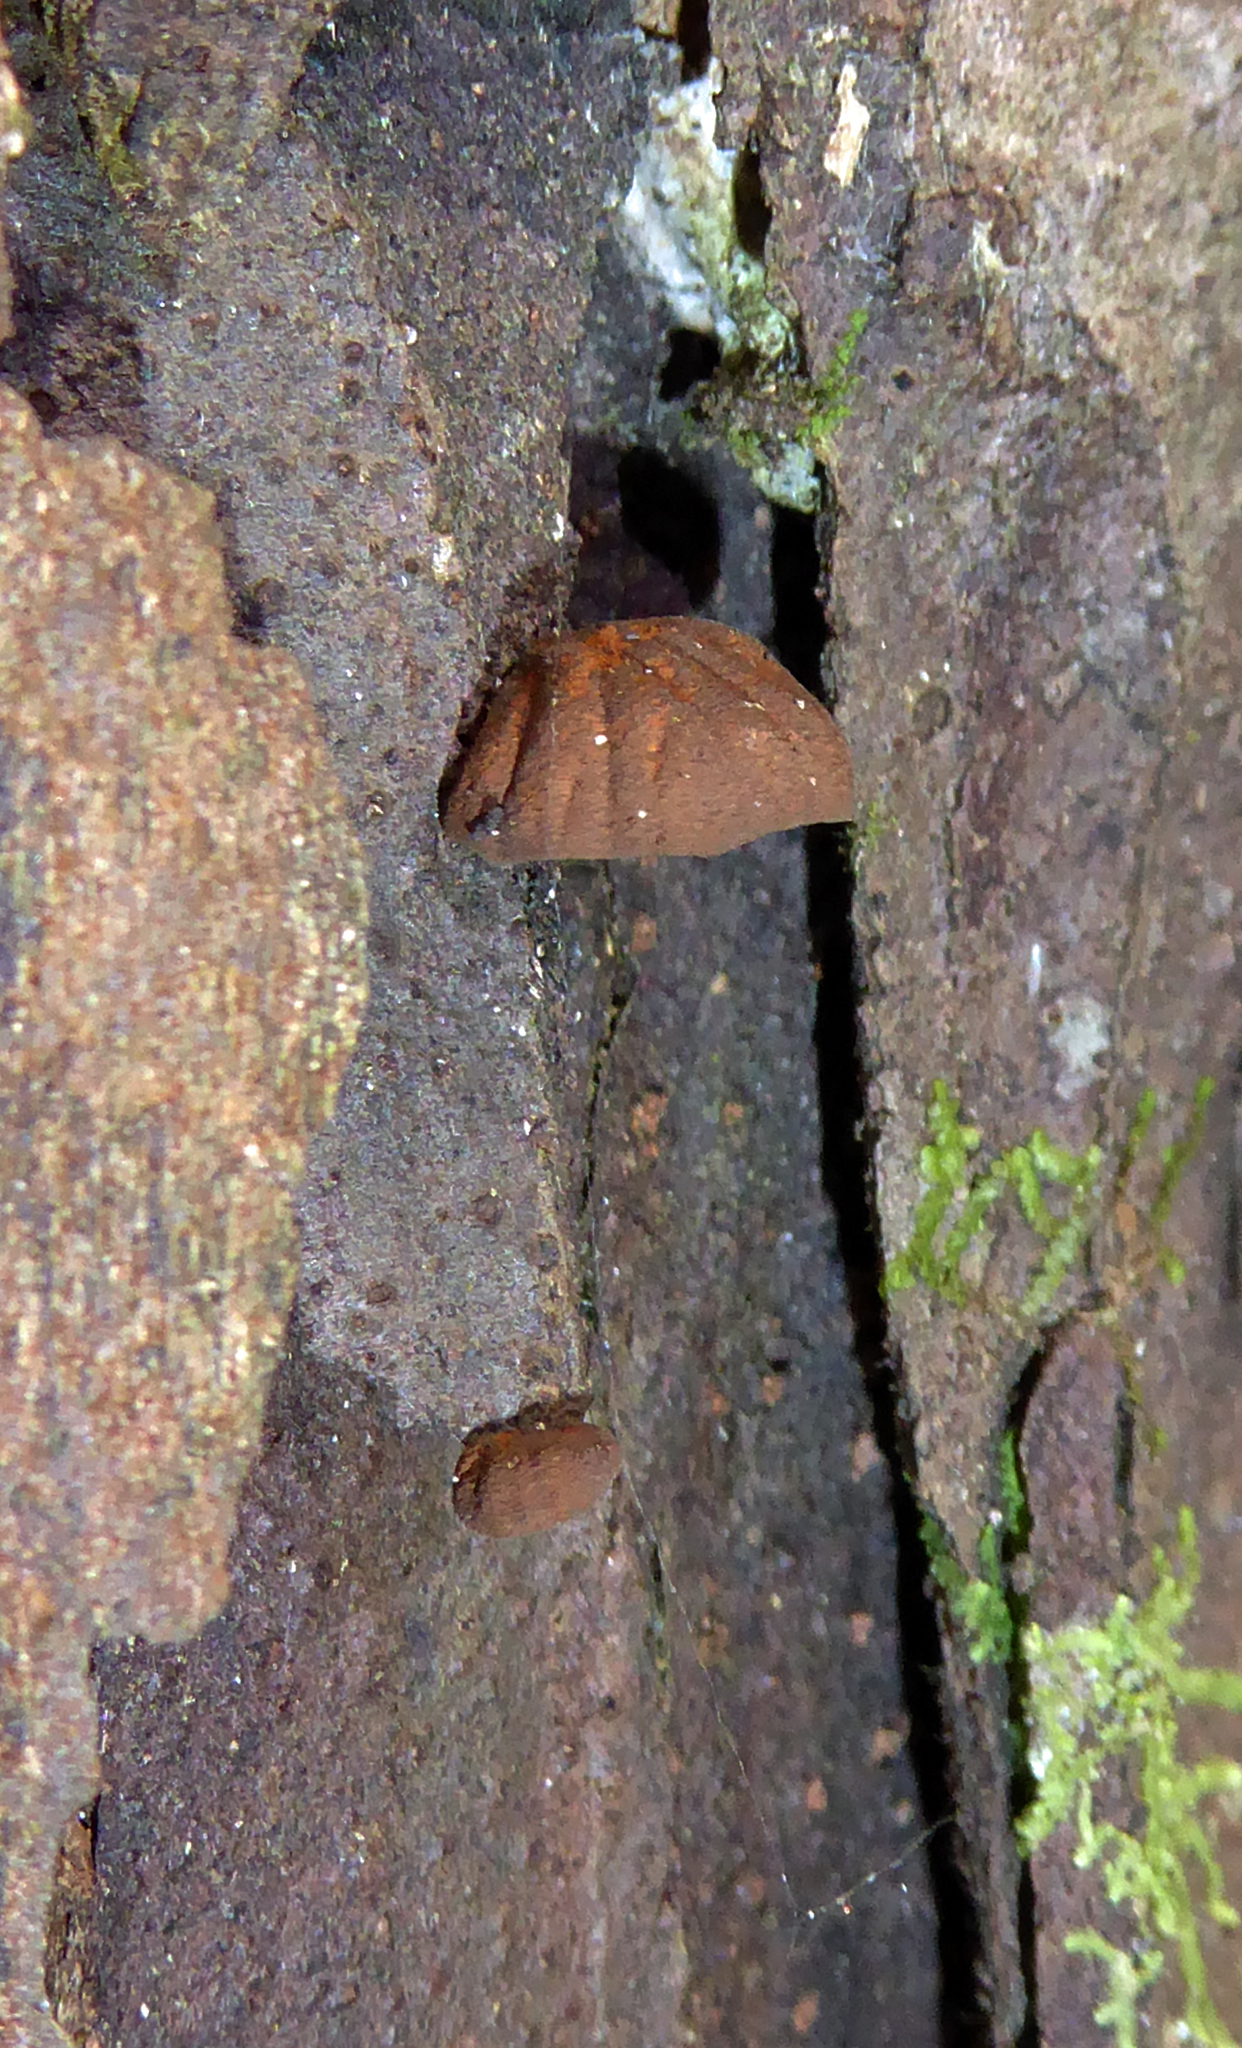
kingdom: Fungi
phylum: Basidiomycota
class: Agaricomycetes
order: Agaricales
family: Omphalotaceae
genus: Anthracophyllum
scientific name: Anthracophyllum archeri
